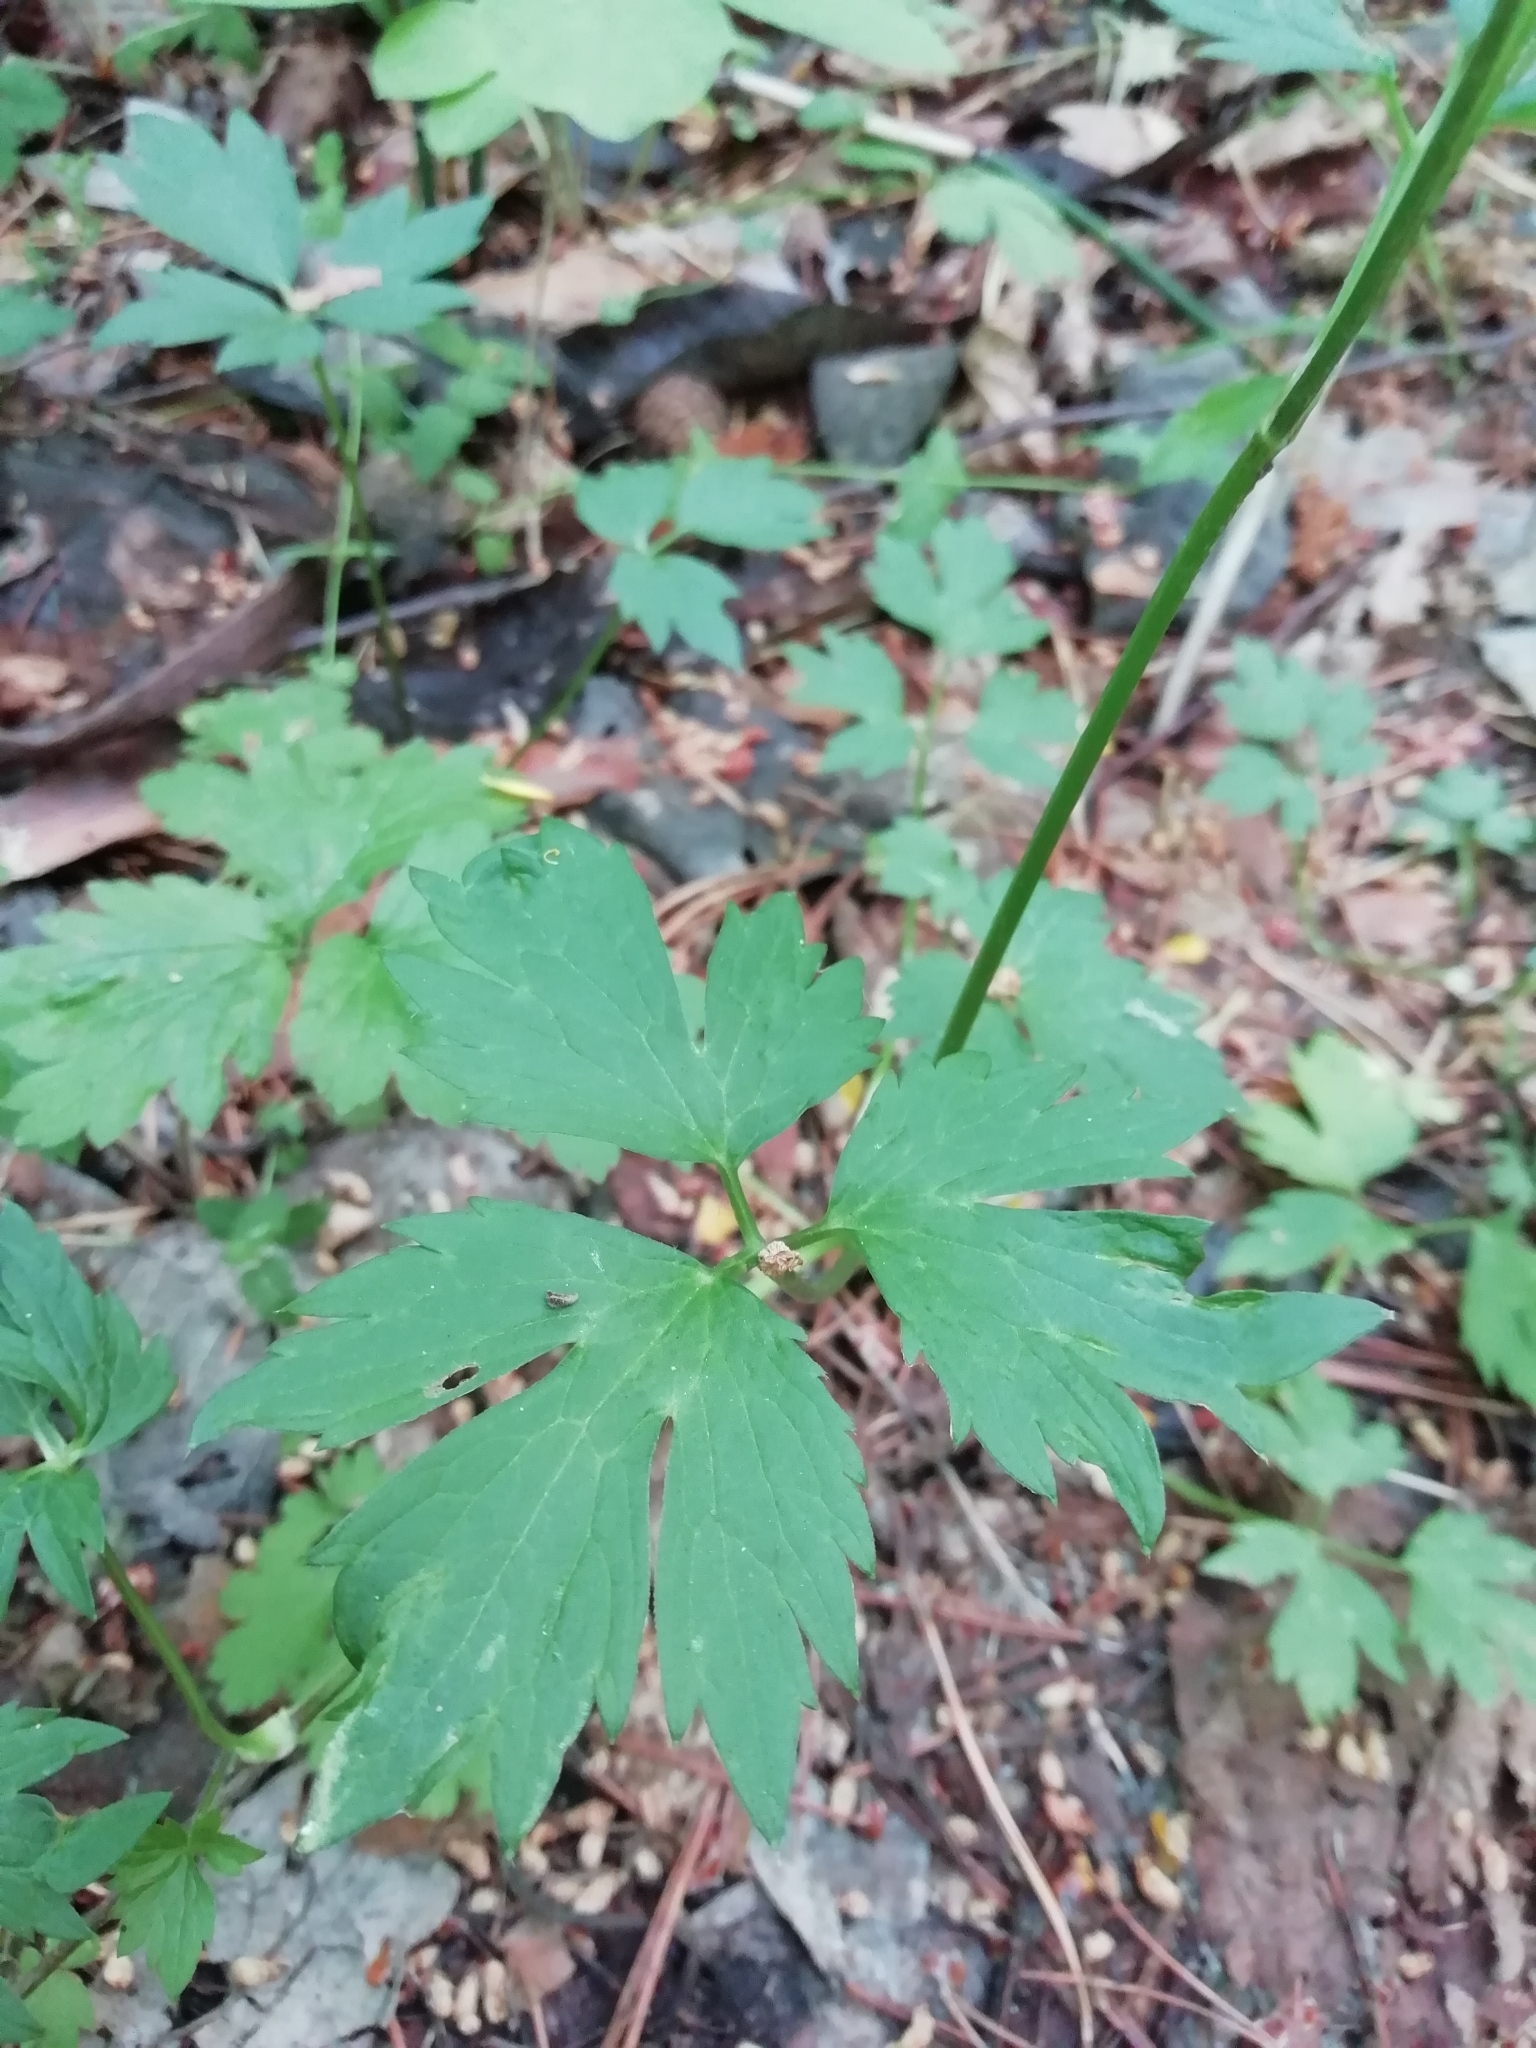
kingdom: Plantae
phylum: Tracheophyta
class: Magnoliopsida
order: Ranunculales
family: Ranunculaceae
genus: Ranunculus
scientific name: Ranunculus repens
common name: Creeping buttercup
